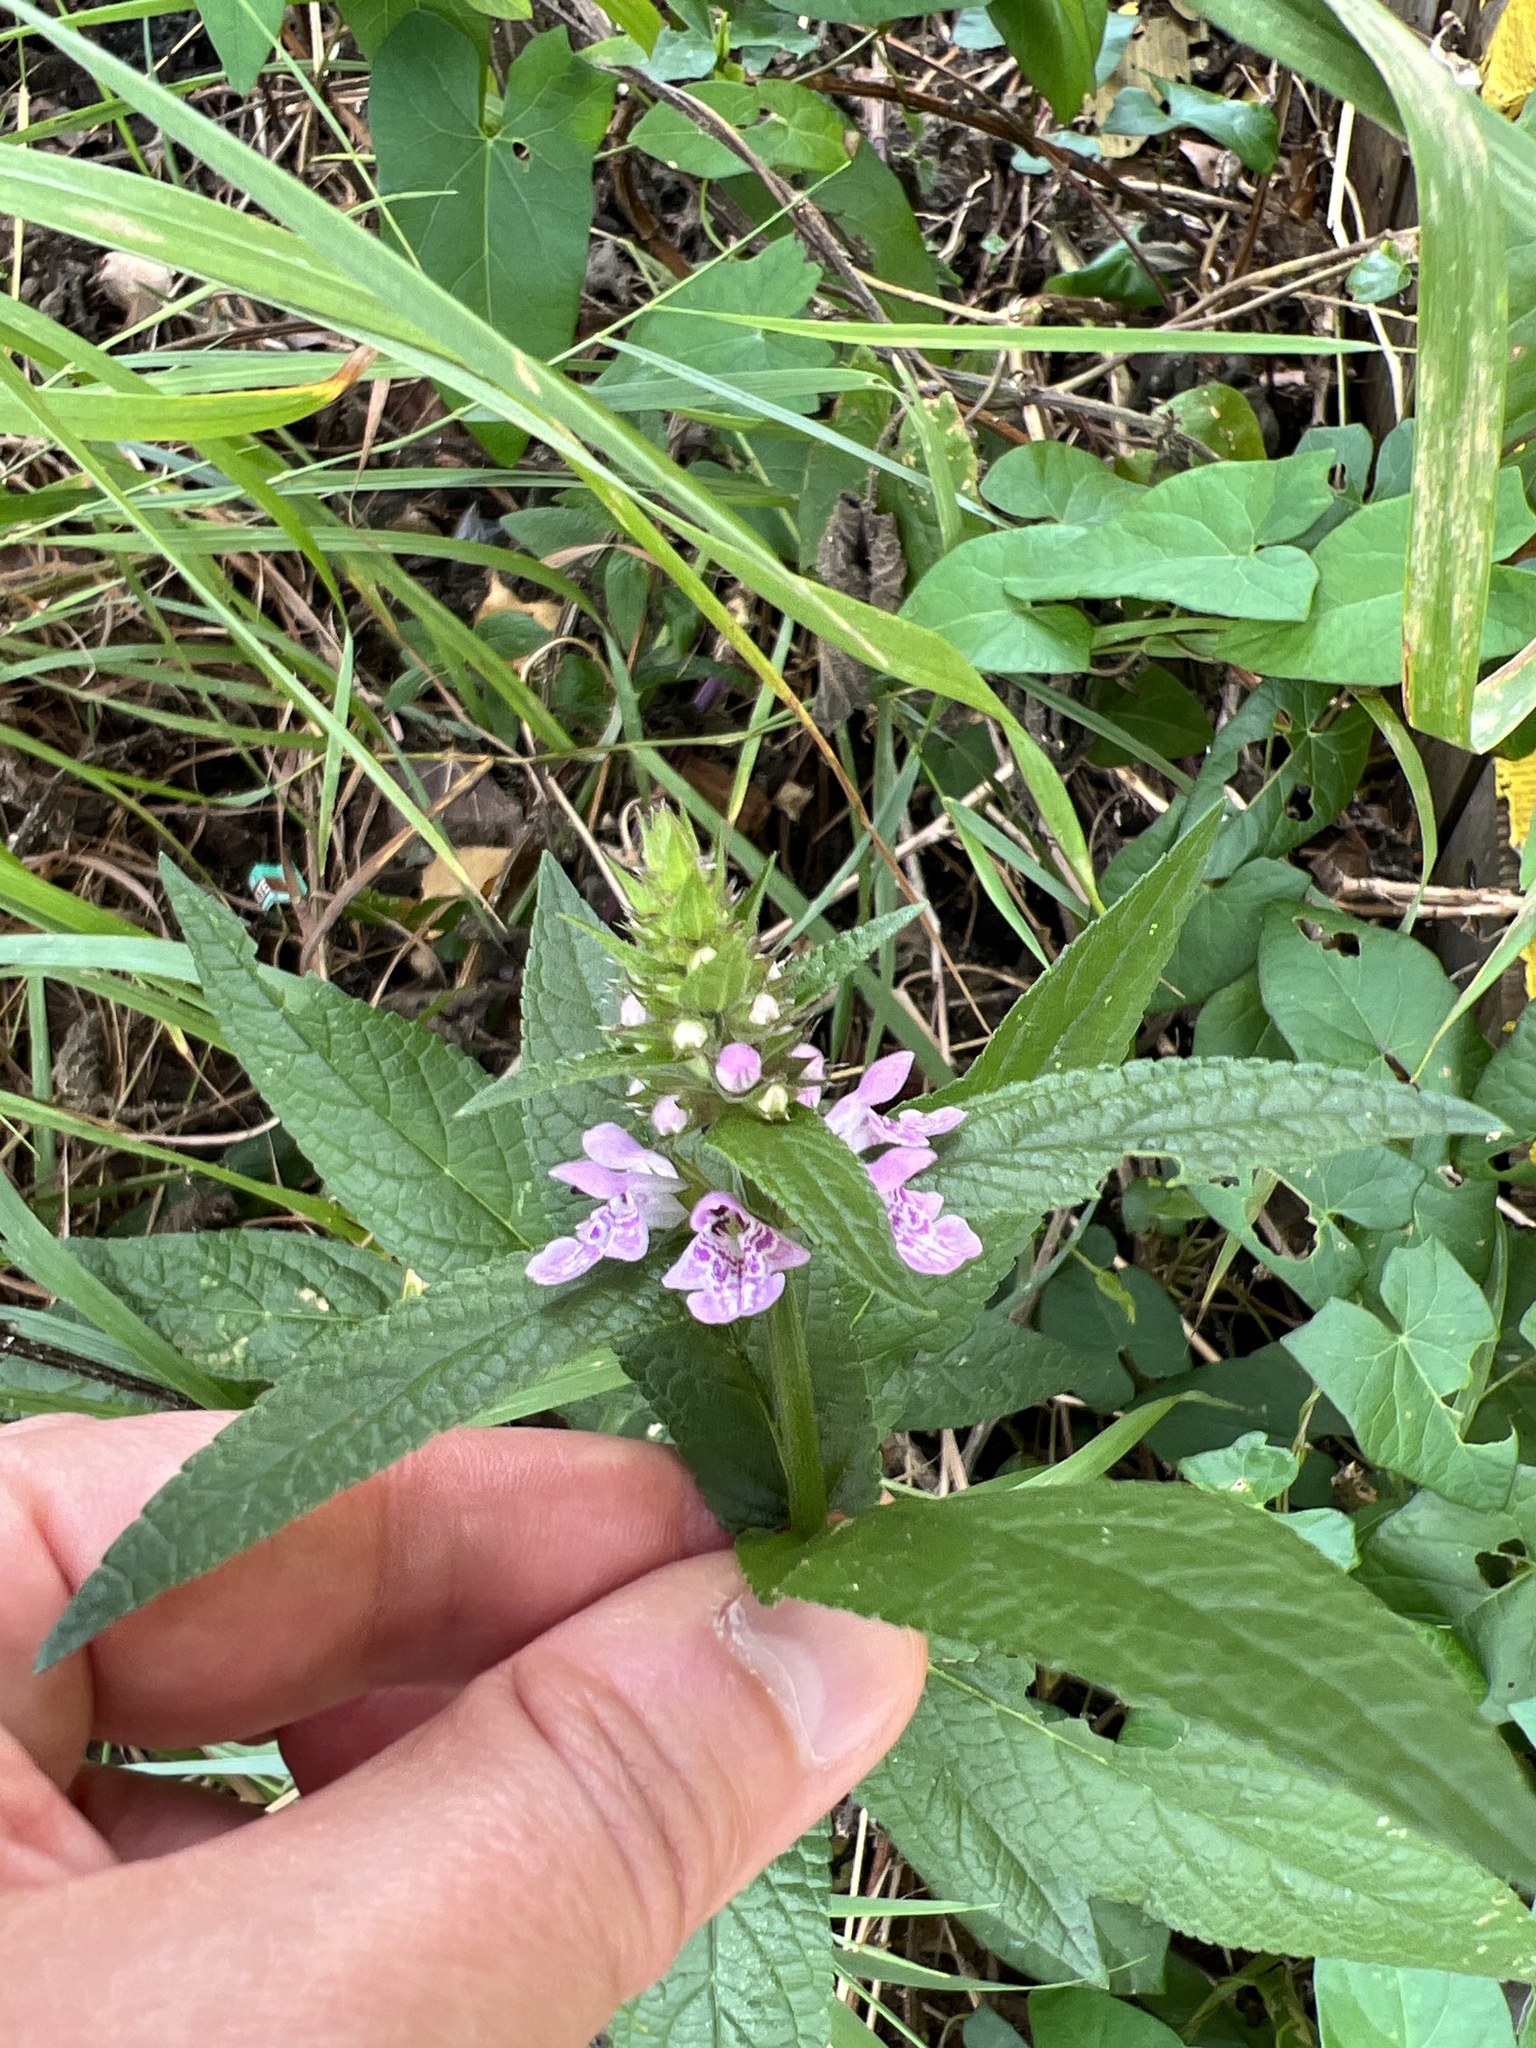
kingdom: Plantae
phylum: Tracheophyta
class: Magnoliopsida
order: Lamiales
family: Lamiaceae
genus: Stachys
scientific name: Stachys palustris
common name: Marsh woundwort
